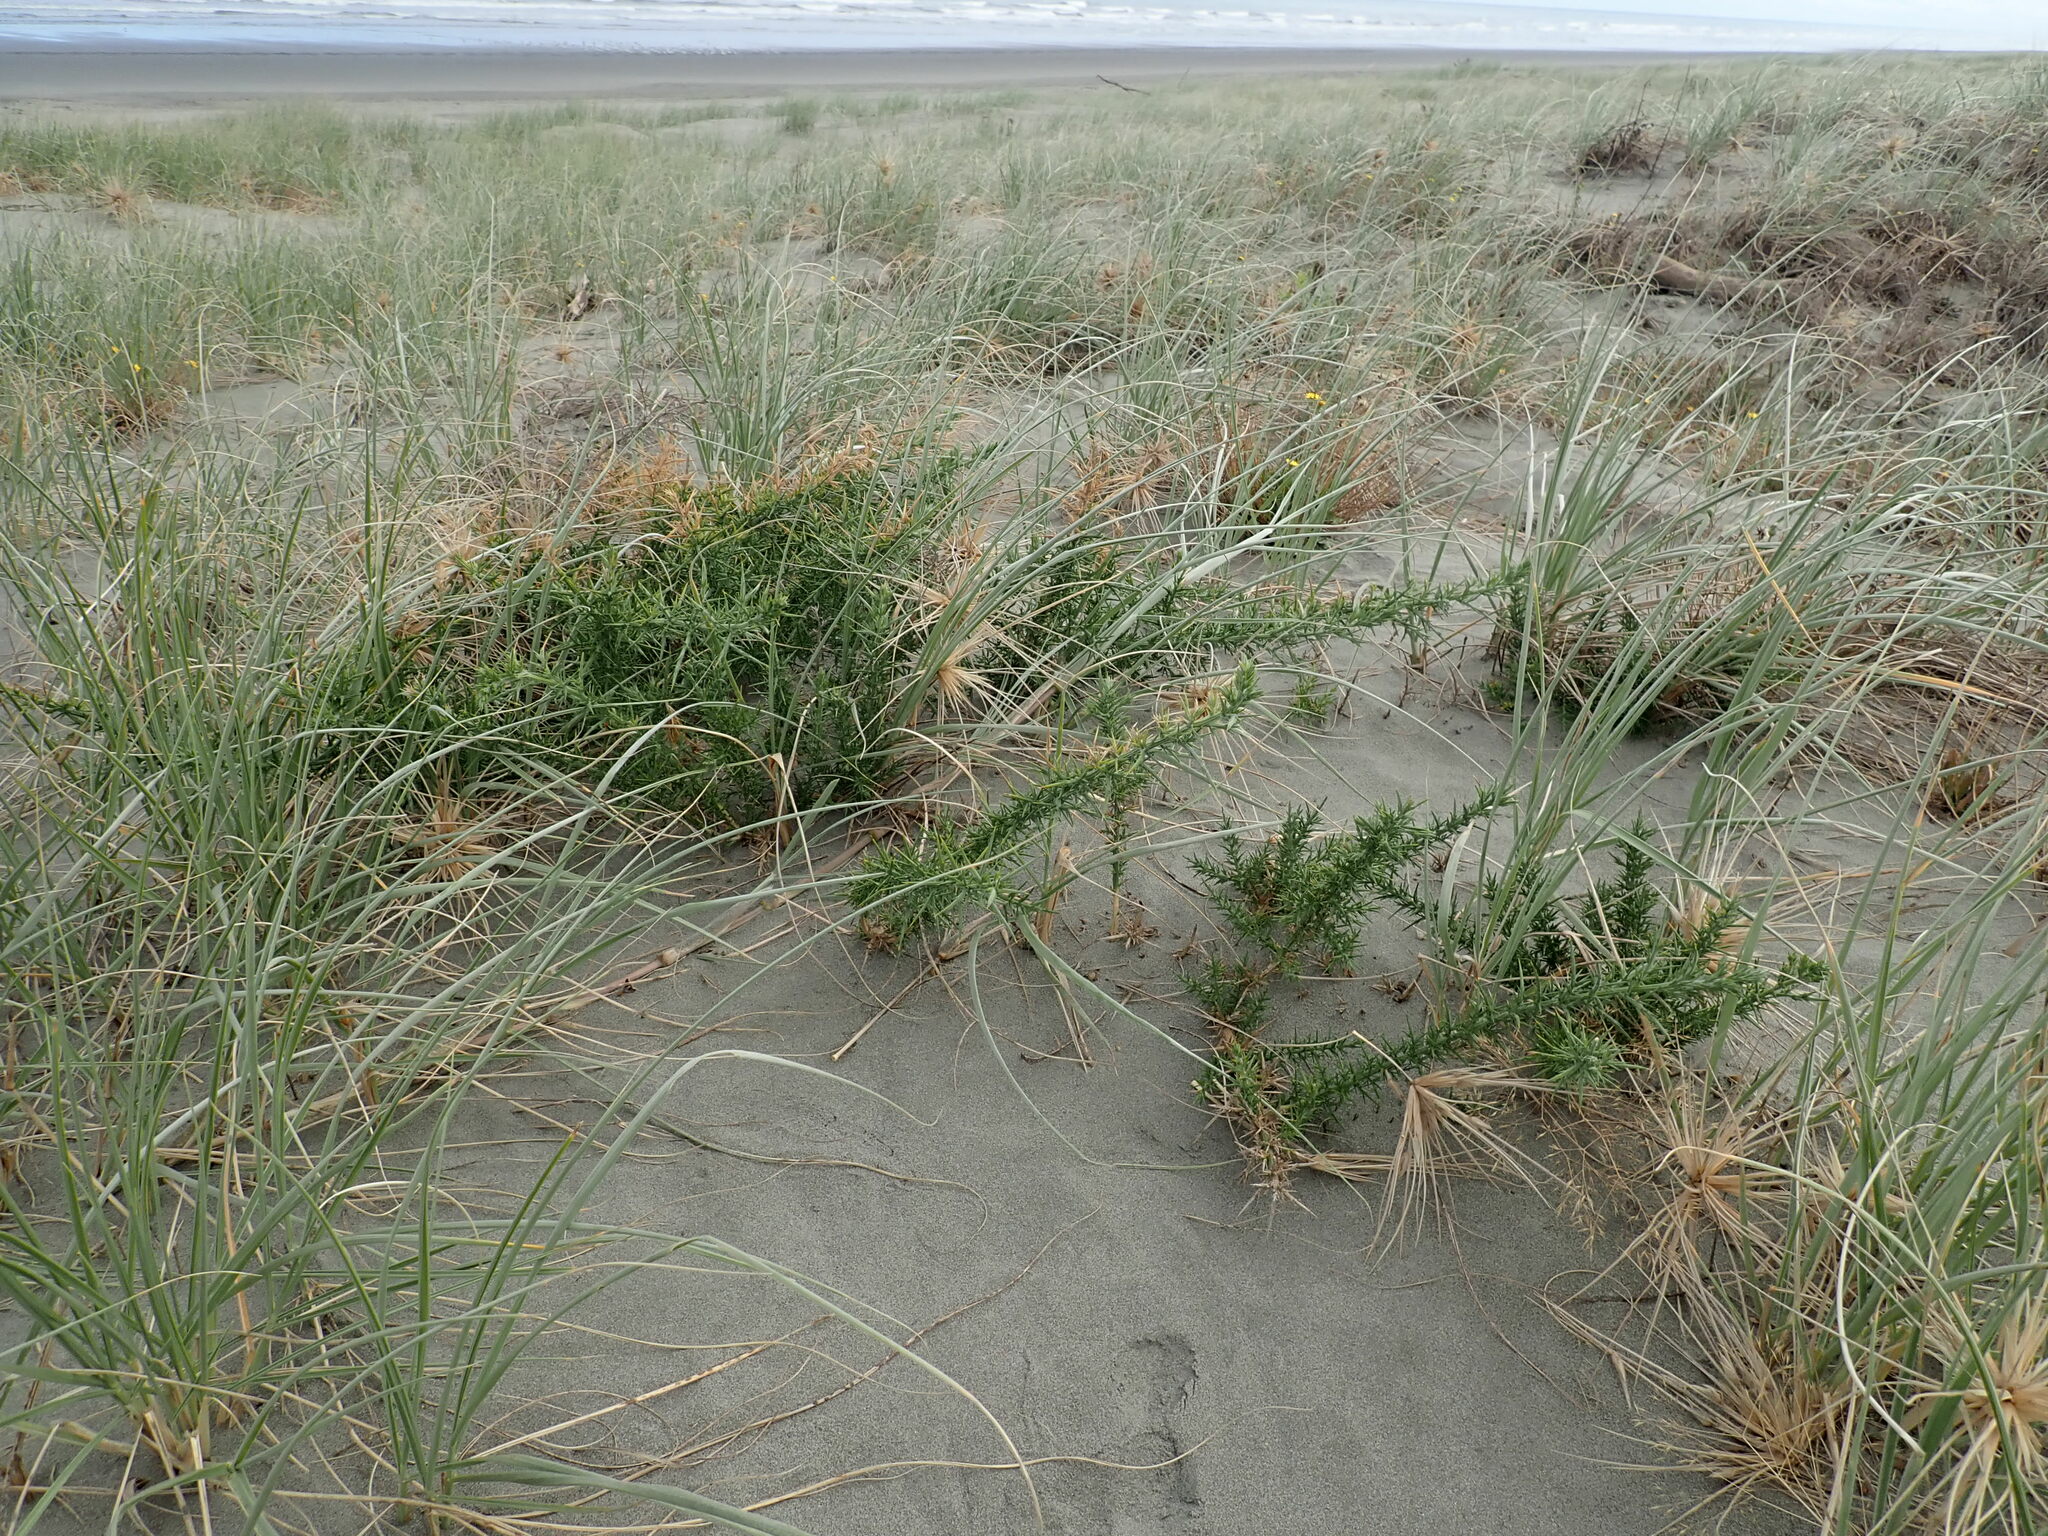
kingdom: Plantae
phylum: Tracheophyta
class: Magnoliopsida
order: Fabales
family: Fabaceae
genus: Ulex
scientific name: Ulex europaeus
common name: Common gorse
